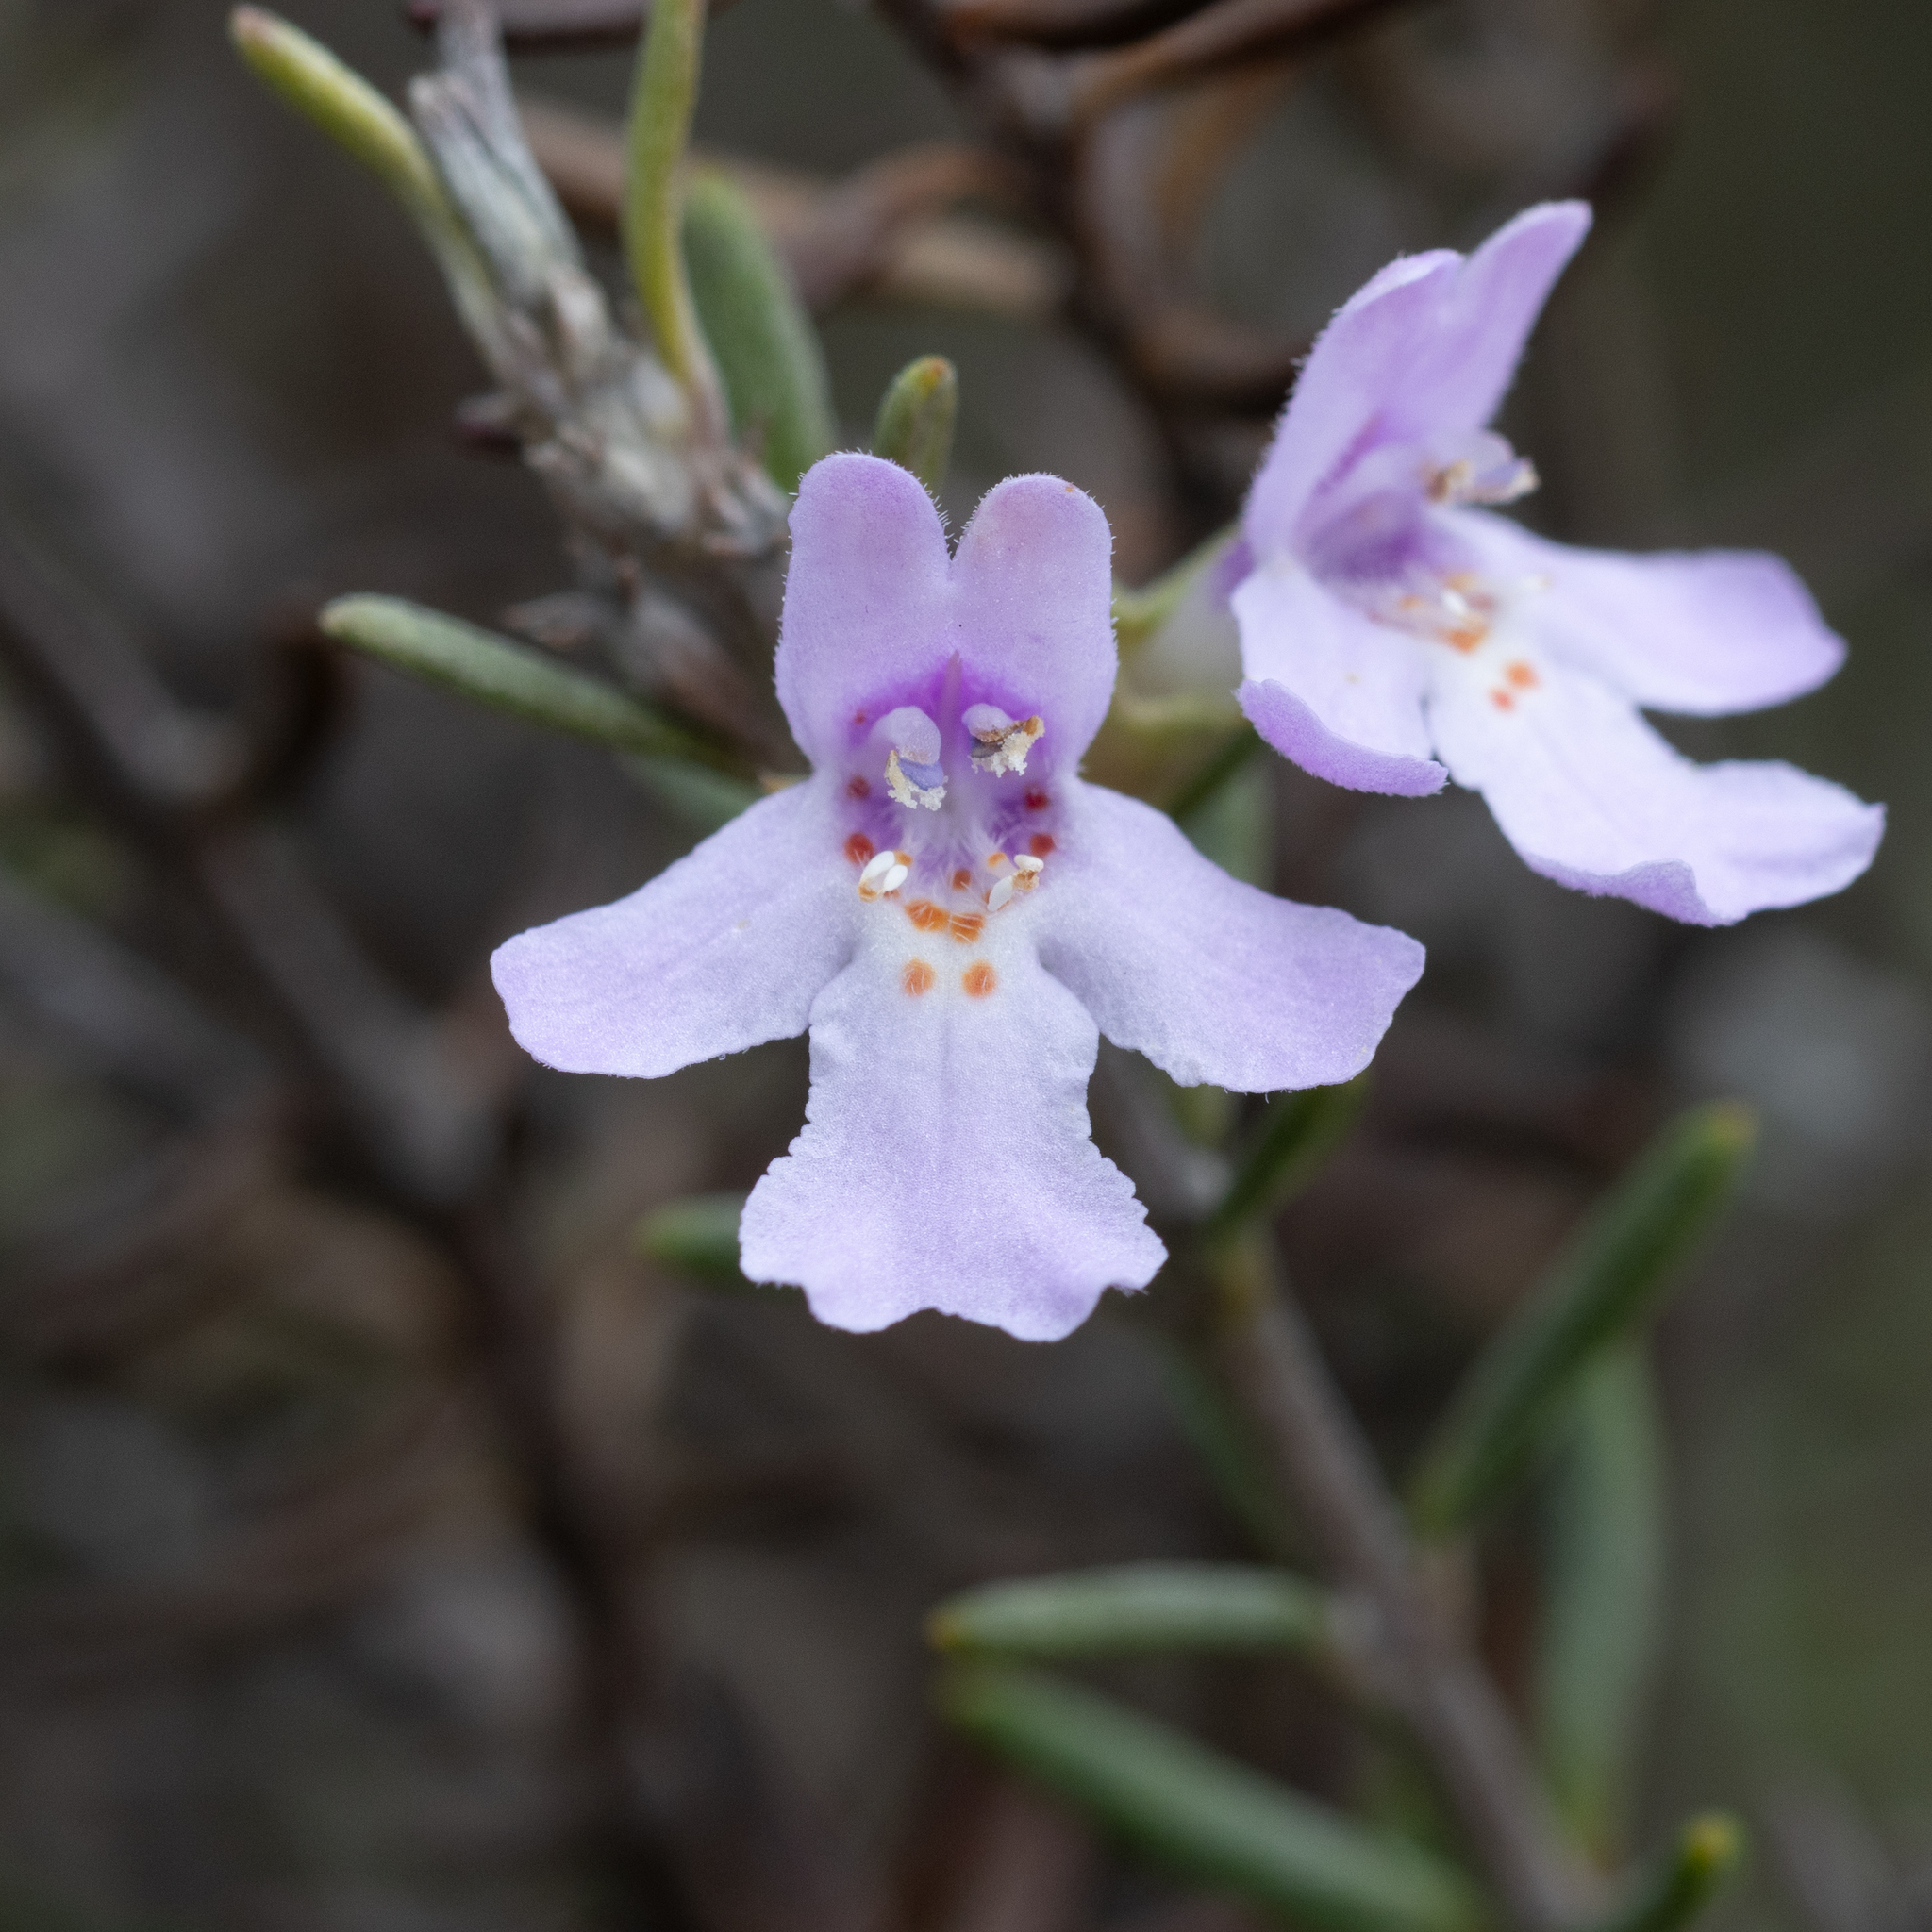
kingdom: Plantae
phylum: Tracheophyta
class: Magnoliopsida
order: Lamiales
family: Lamiaceae
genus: Westringia
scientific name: Westringia eremicola
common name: Slender western-rosemary
